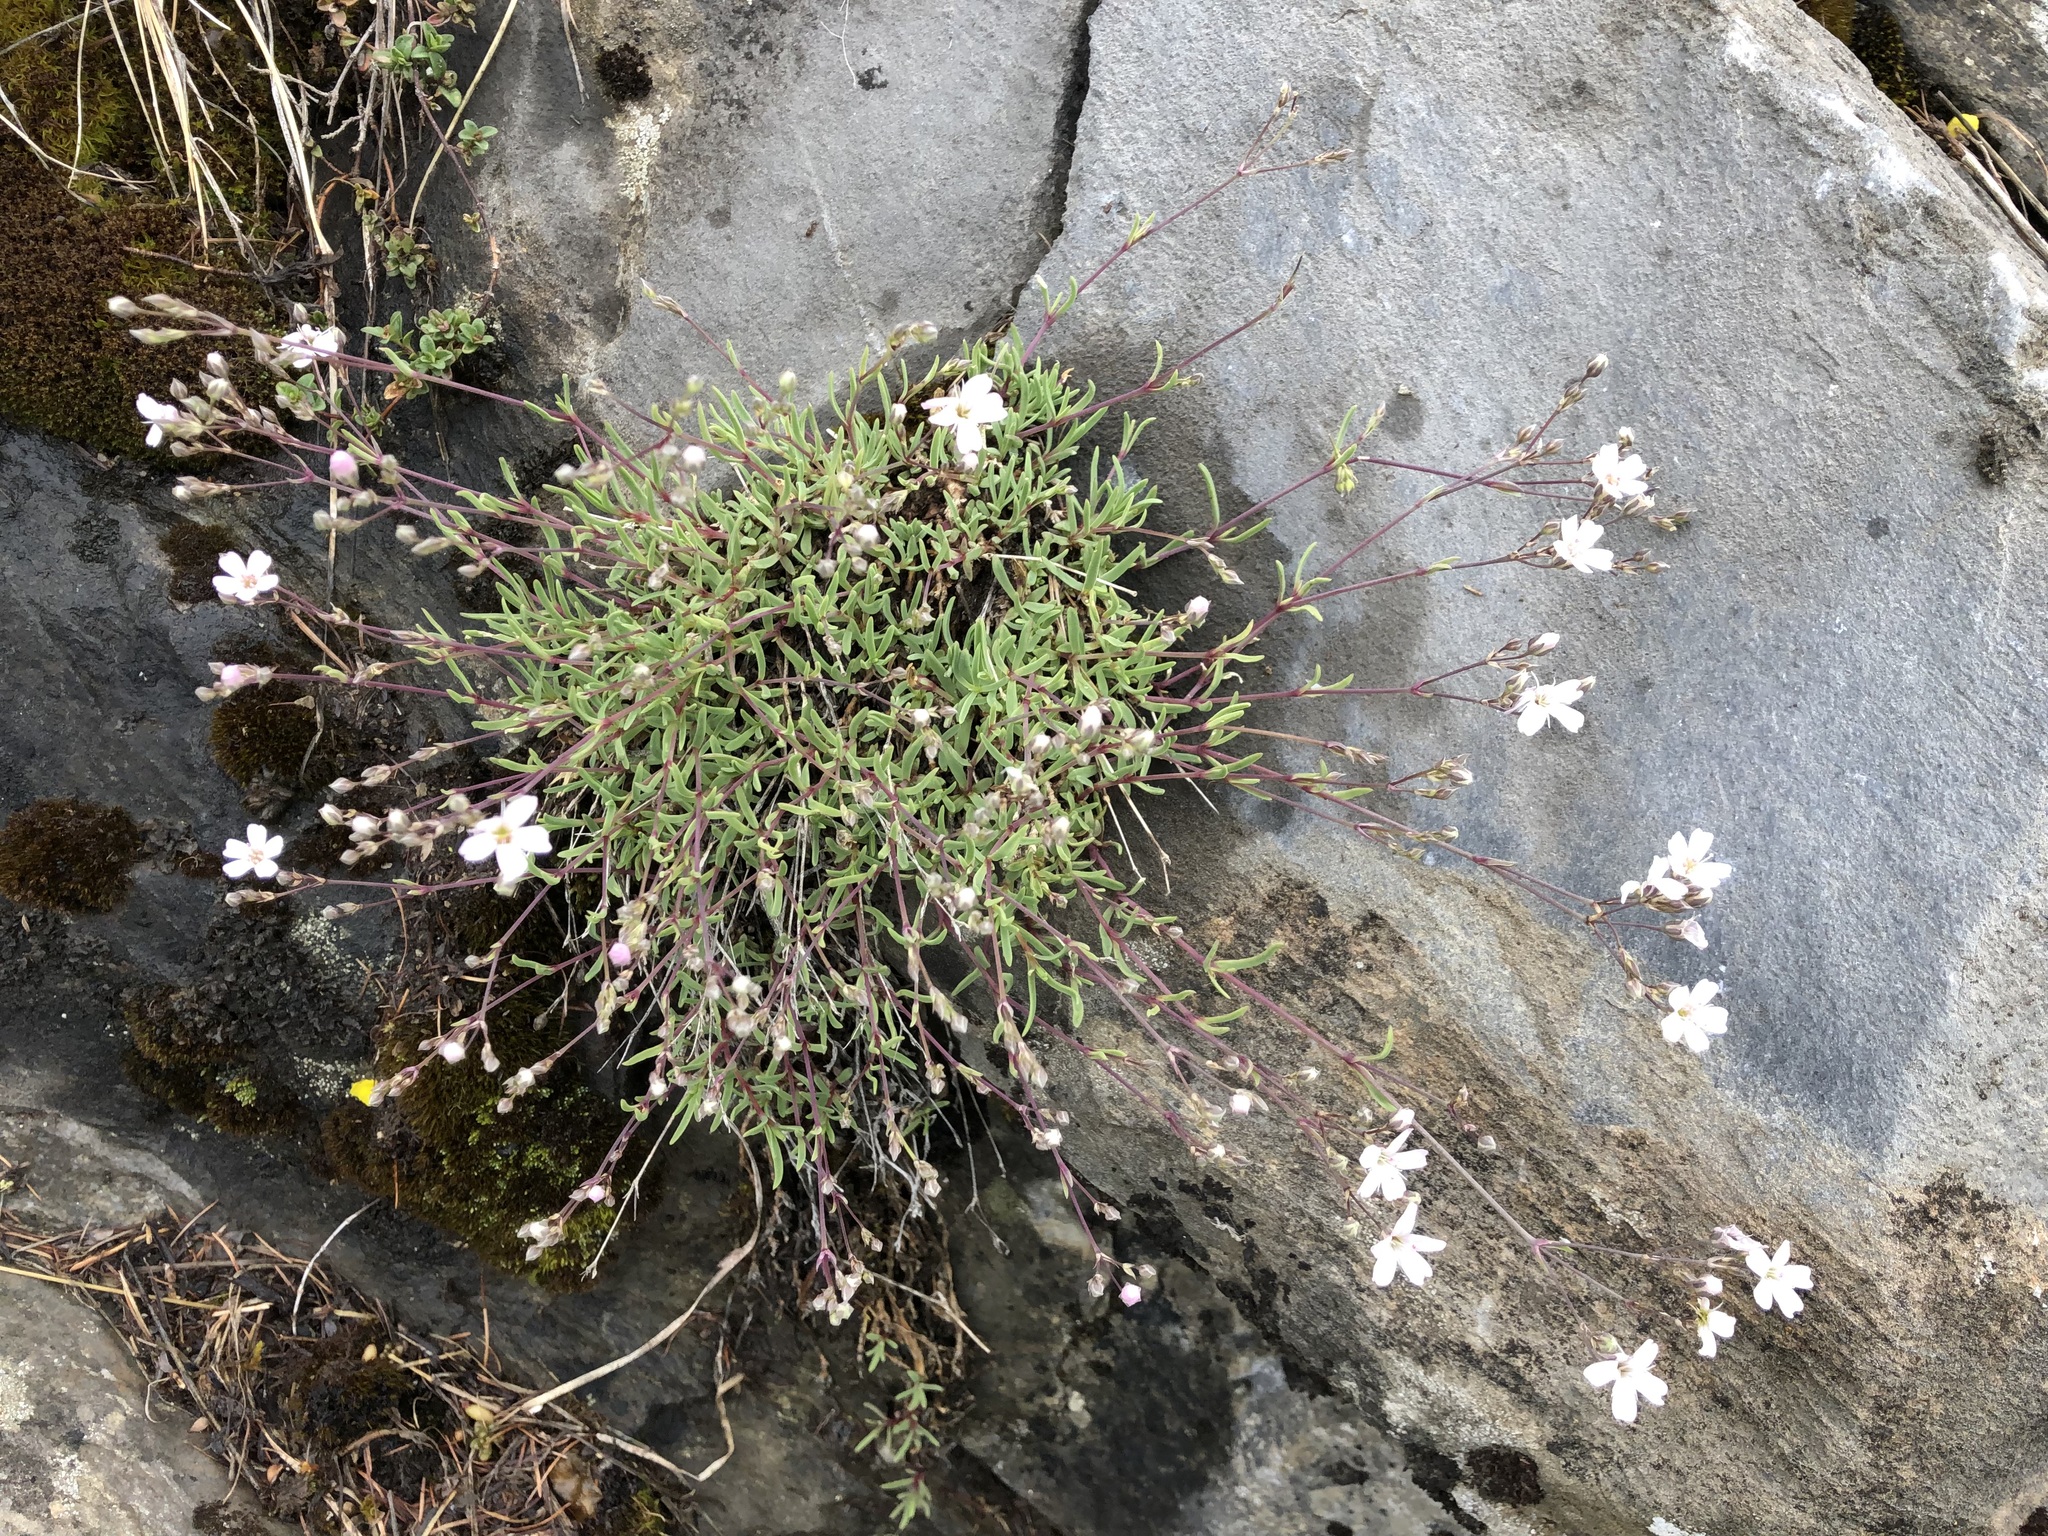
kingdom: Plantae
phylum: Tracheophyta
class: Magnoliopsida
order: Caryophyllales
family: Caryophyllaceae
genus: Gypsophila
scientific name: Gypsophila repens
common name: Creeping baby's-breath
